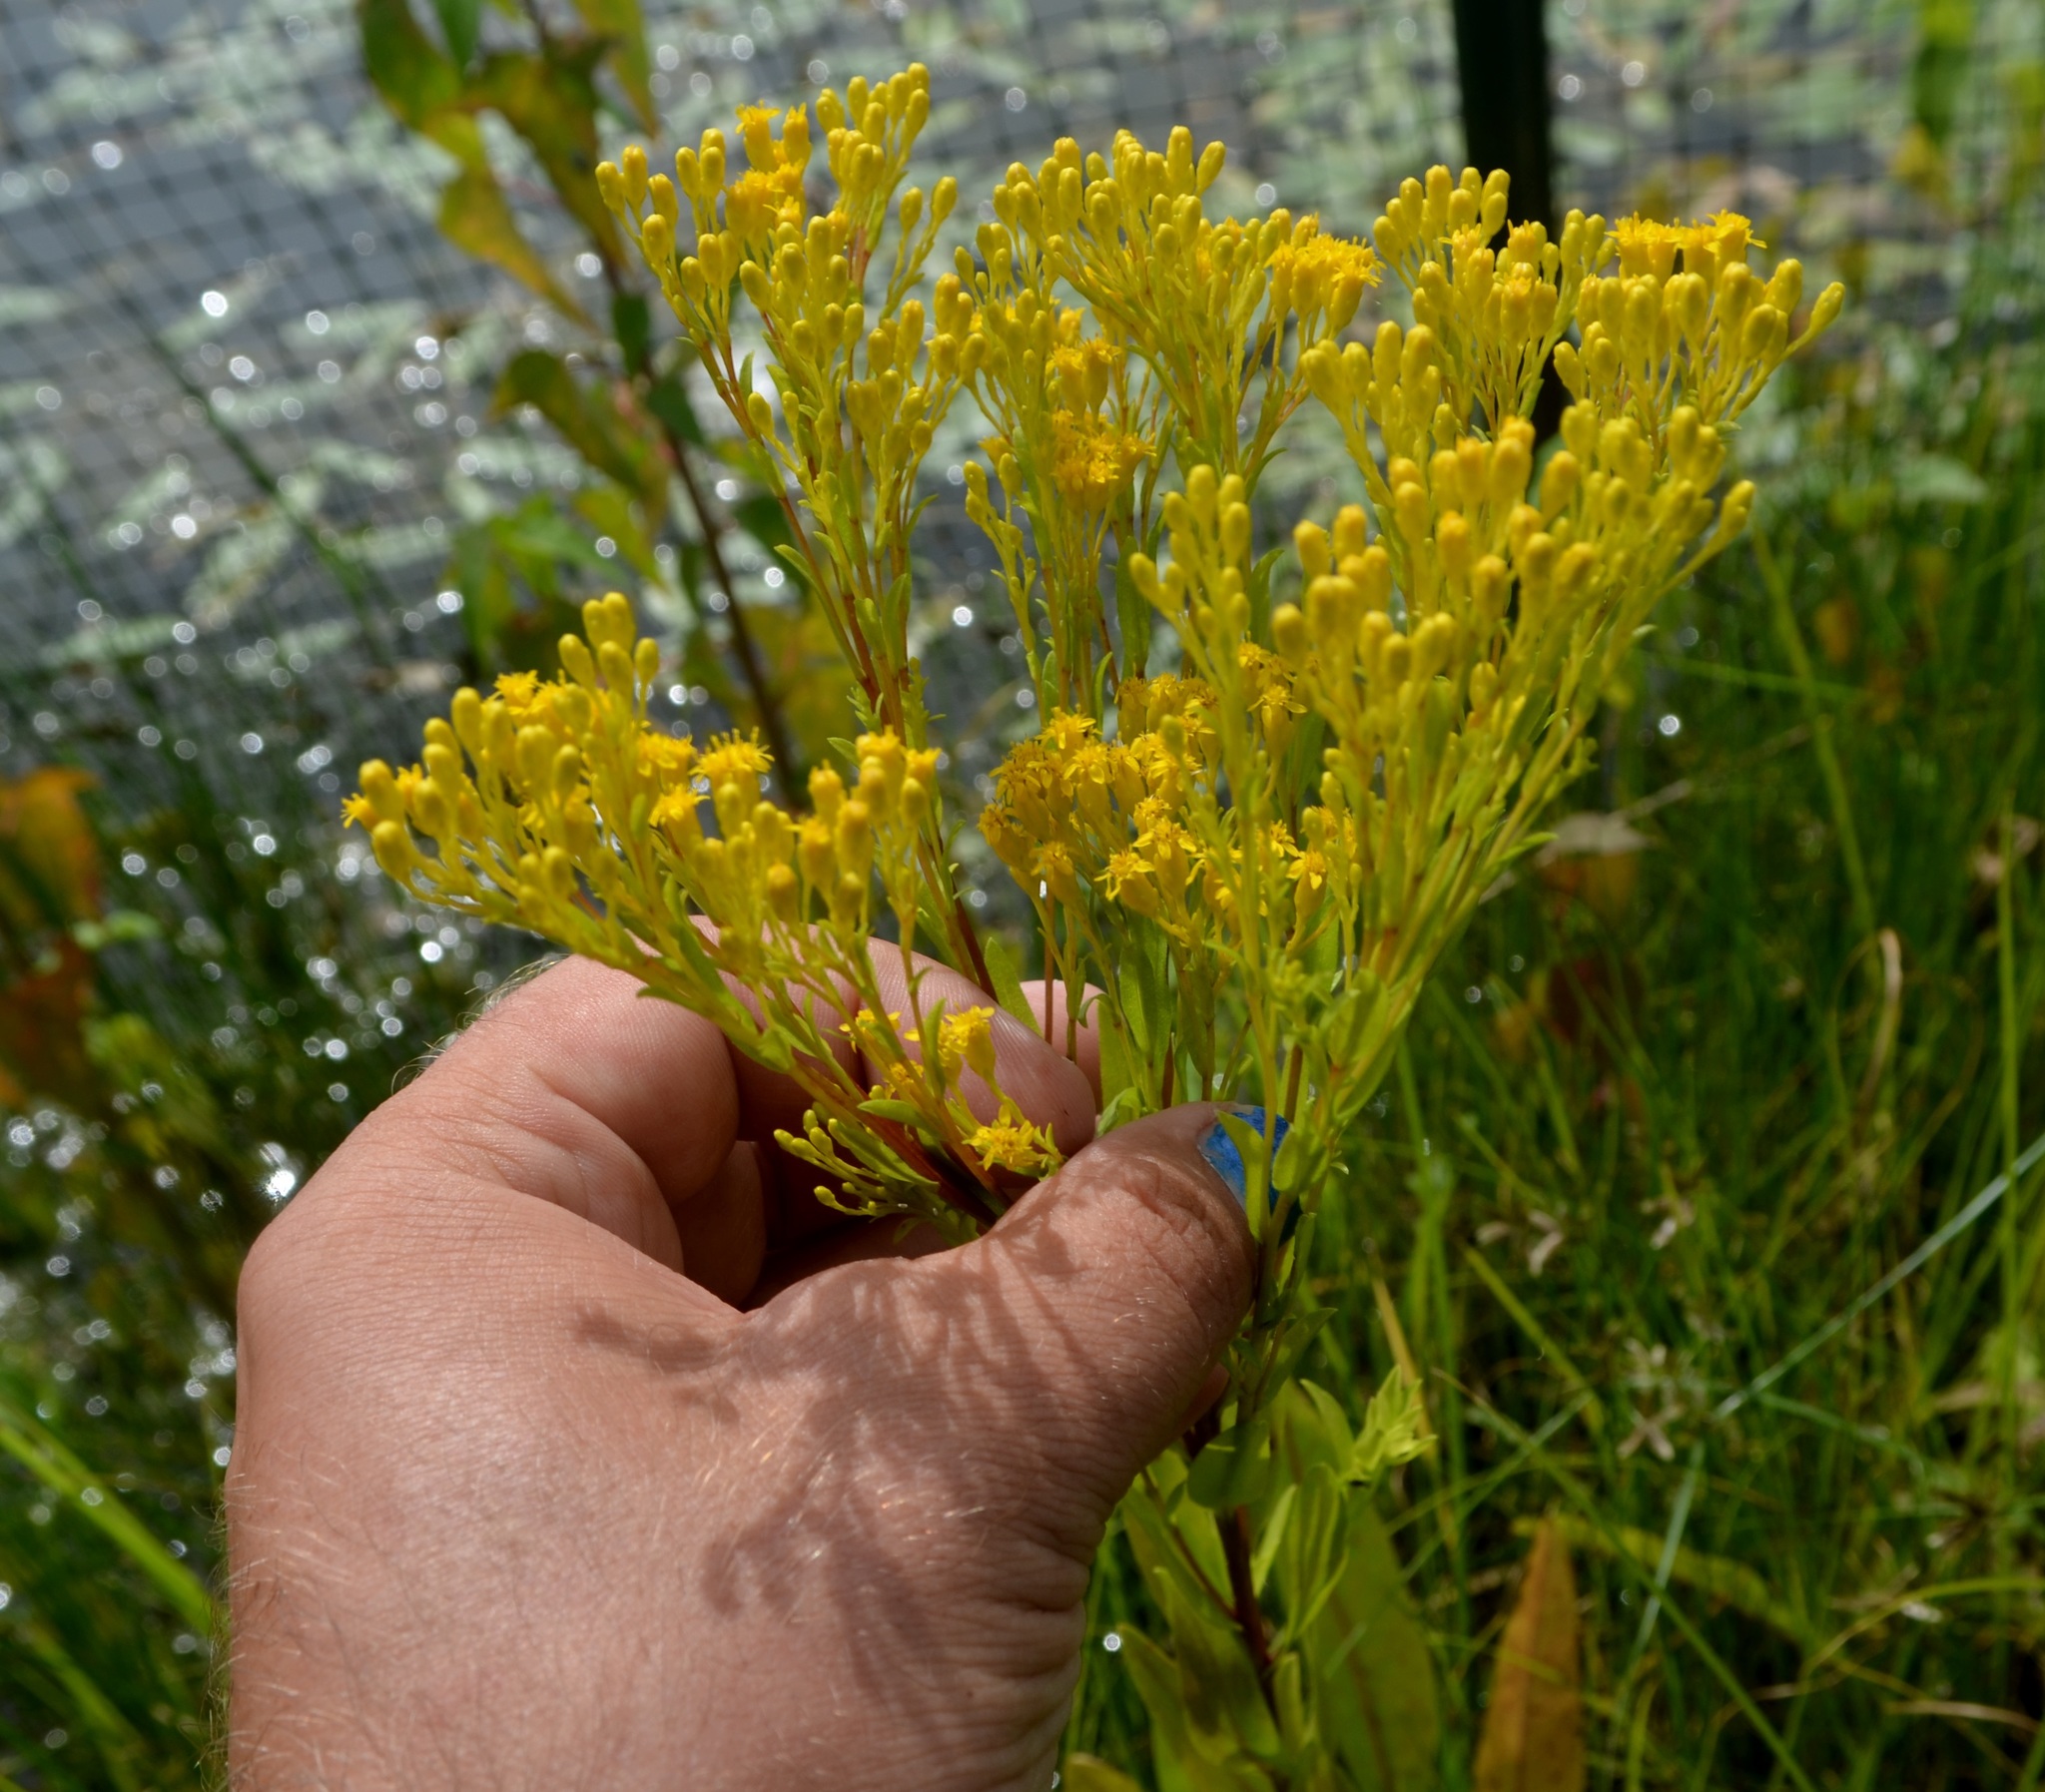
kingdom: Plantae
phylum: Tracheophyta
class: Magnoliopsida
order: Asterales
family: Asteraceae
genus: Solidago
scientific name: Solidago ohioensis
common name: Ohio goldenrod
